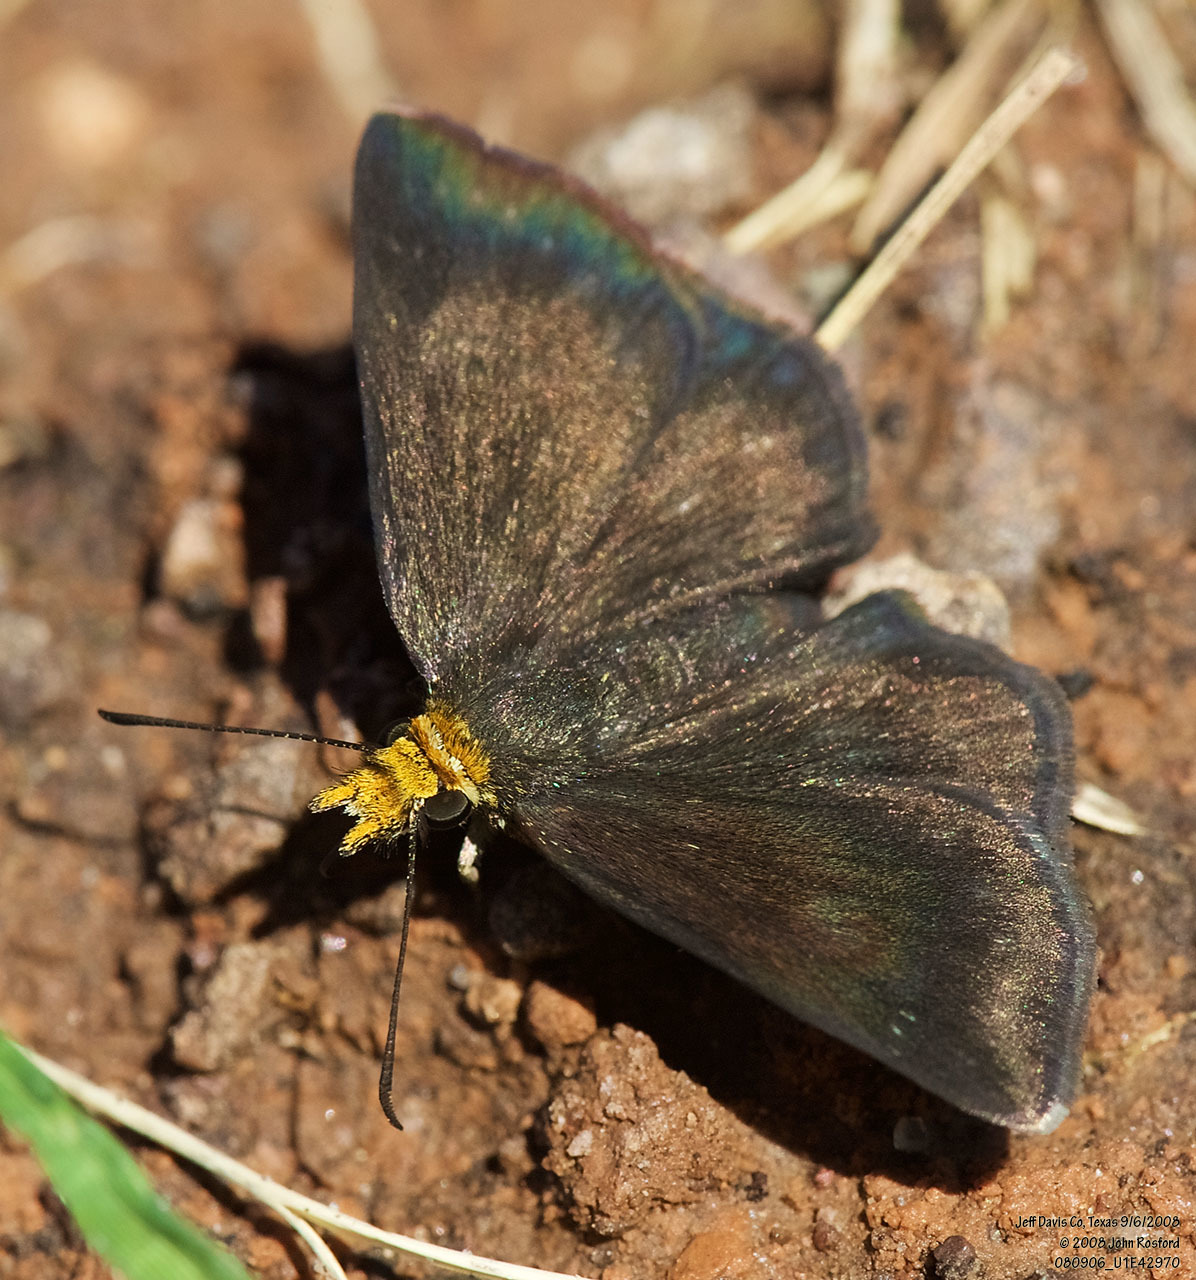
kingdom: Animalia
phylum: Arthropoda
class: Insecta
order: Lepidoptera
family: Hesperiidae
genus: Staphylus
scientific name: Staphylus ceos
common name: Golden-headed scallopwing
